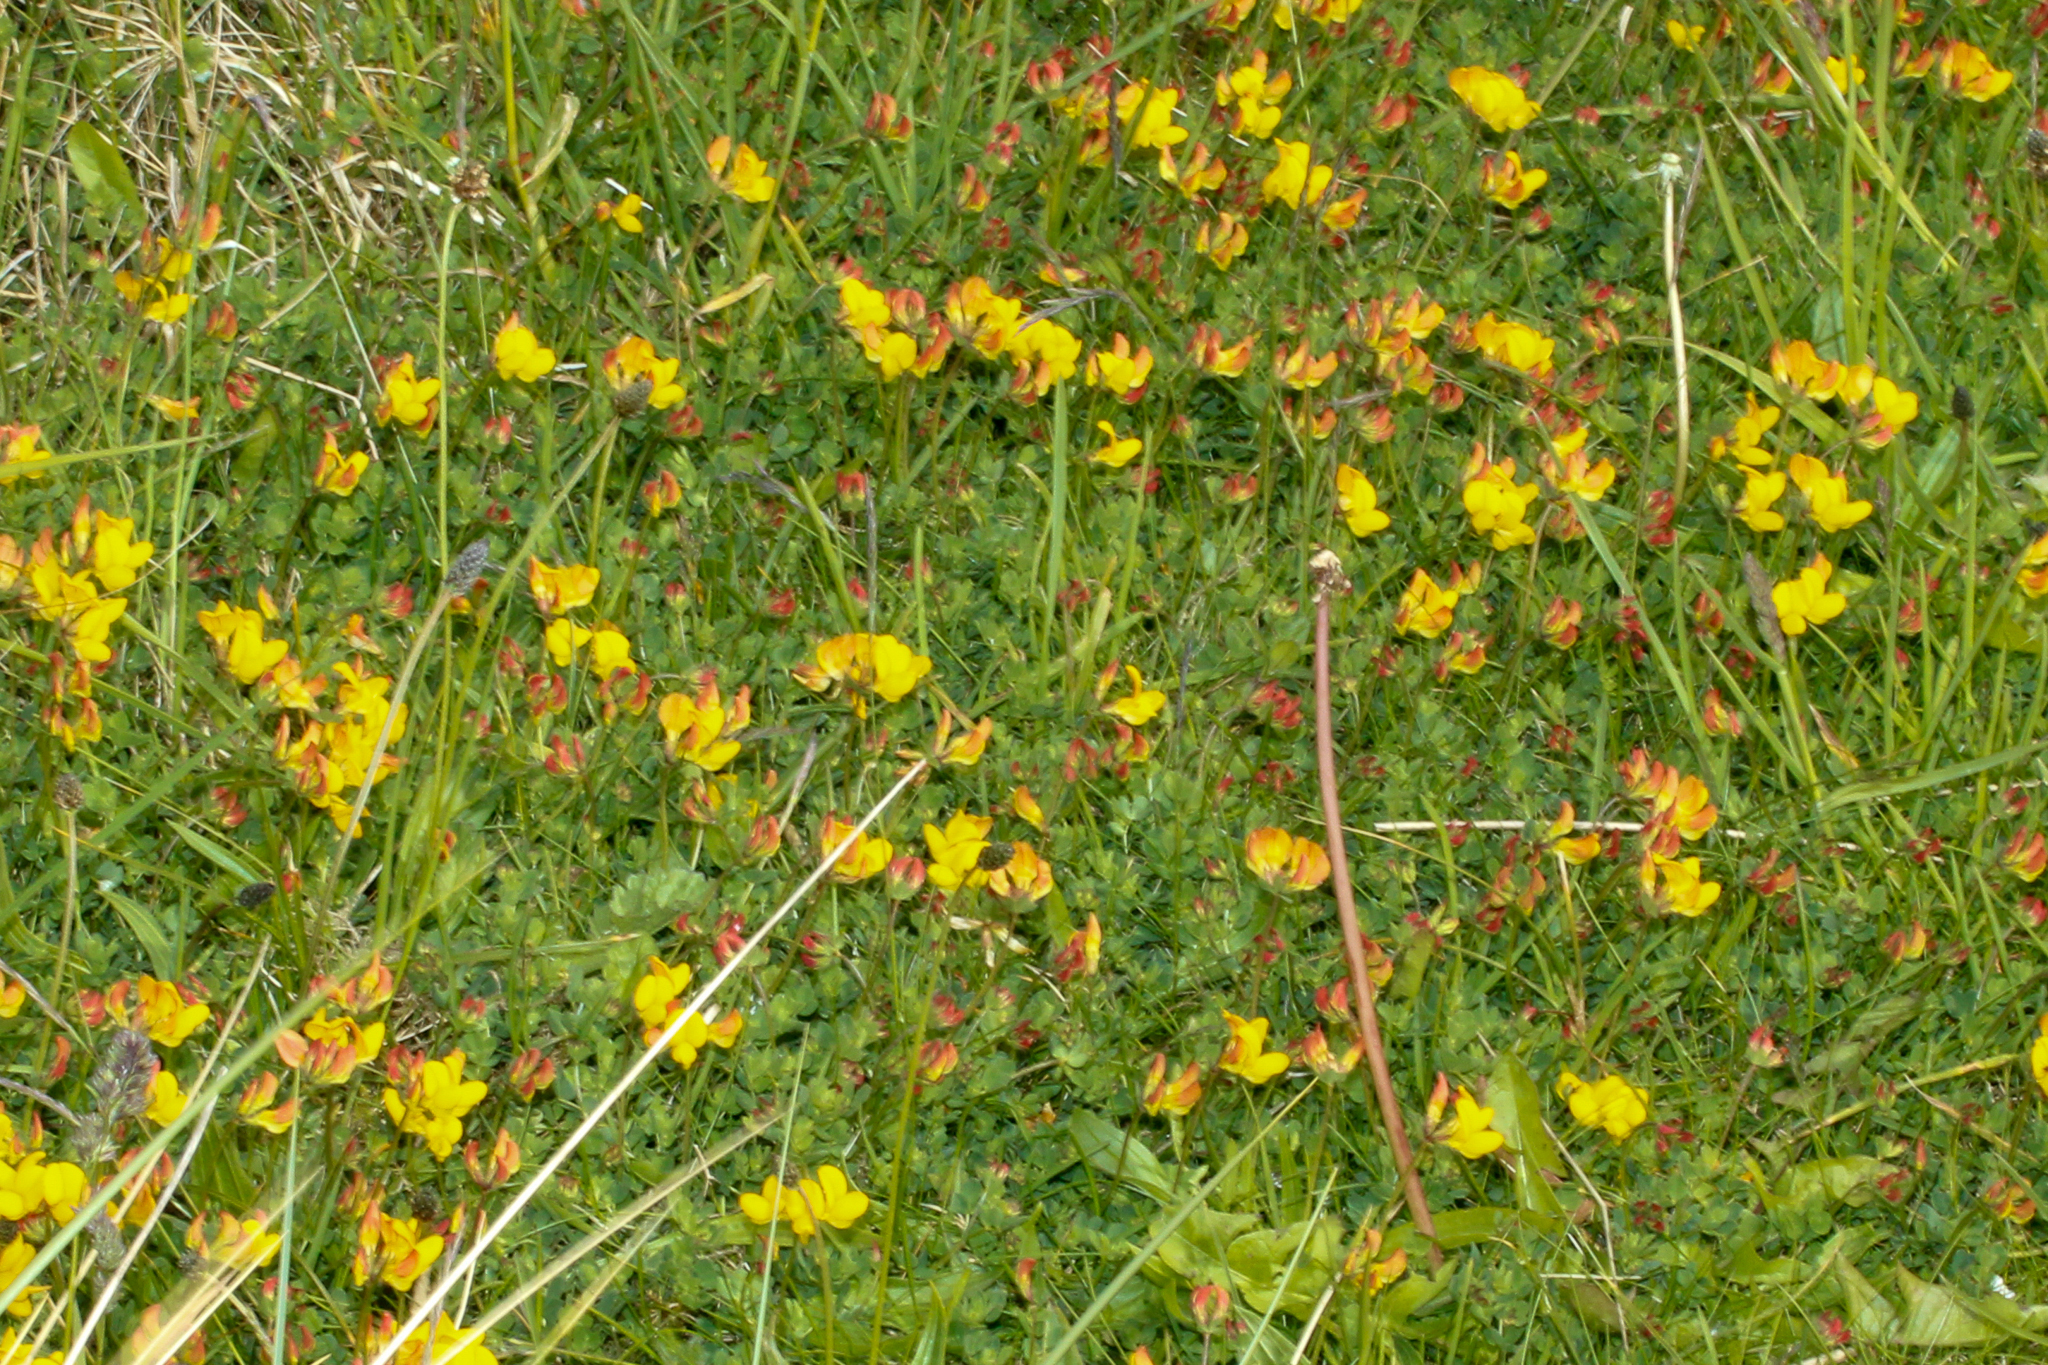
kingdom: Plantae
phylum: Tracheophyta
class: Magnoliopsida
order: Fabales
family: Fabaceae
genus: Lotus
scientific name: Lotus corniculatus
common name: Common bird's-foot-trefoil
